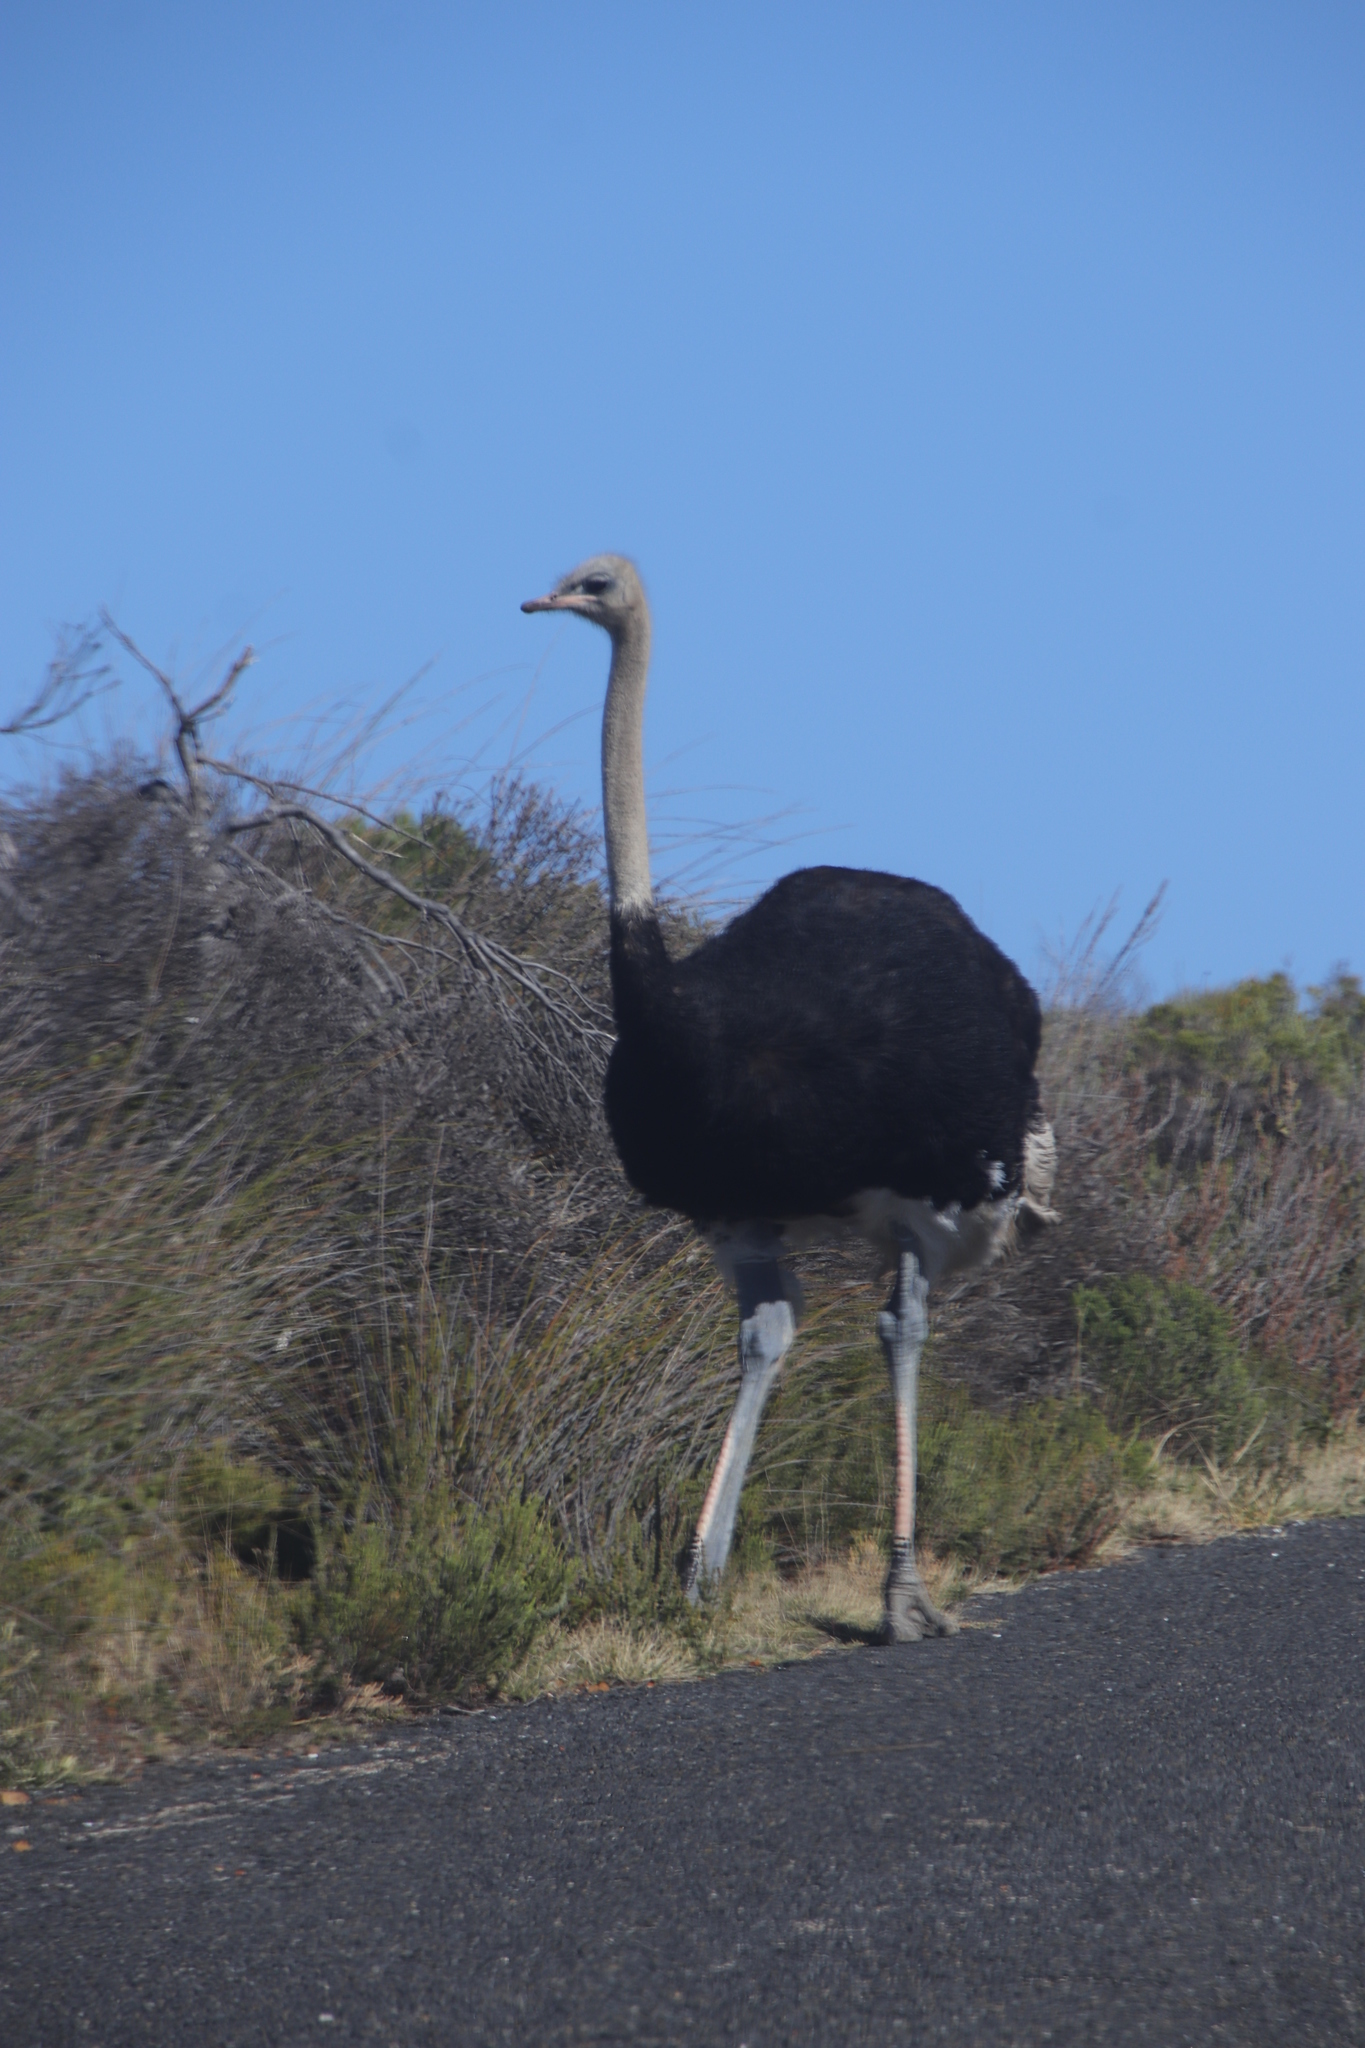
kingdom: Animalia
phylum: Chordata
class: Aves
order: Struthioniformes
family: Struthionidae
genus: Struthio
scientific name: Struthio camelus
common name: Common ostrich
